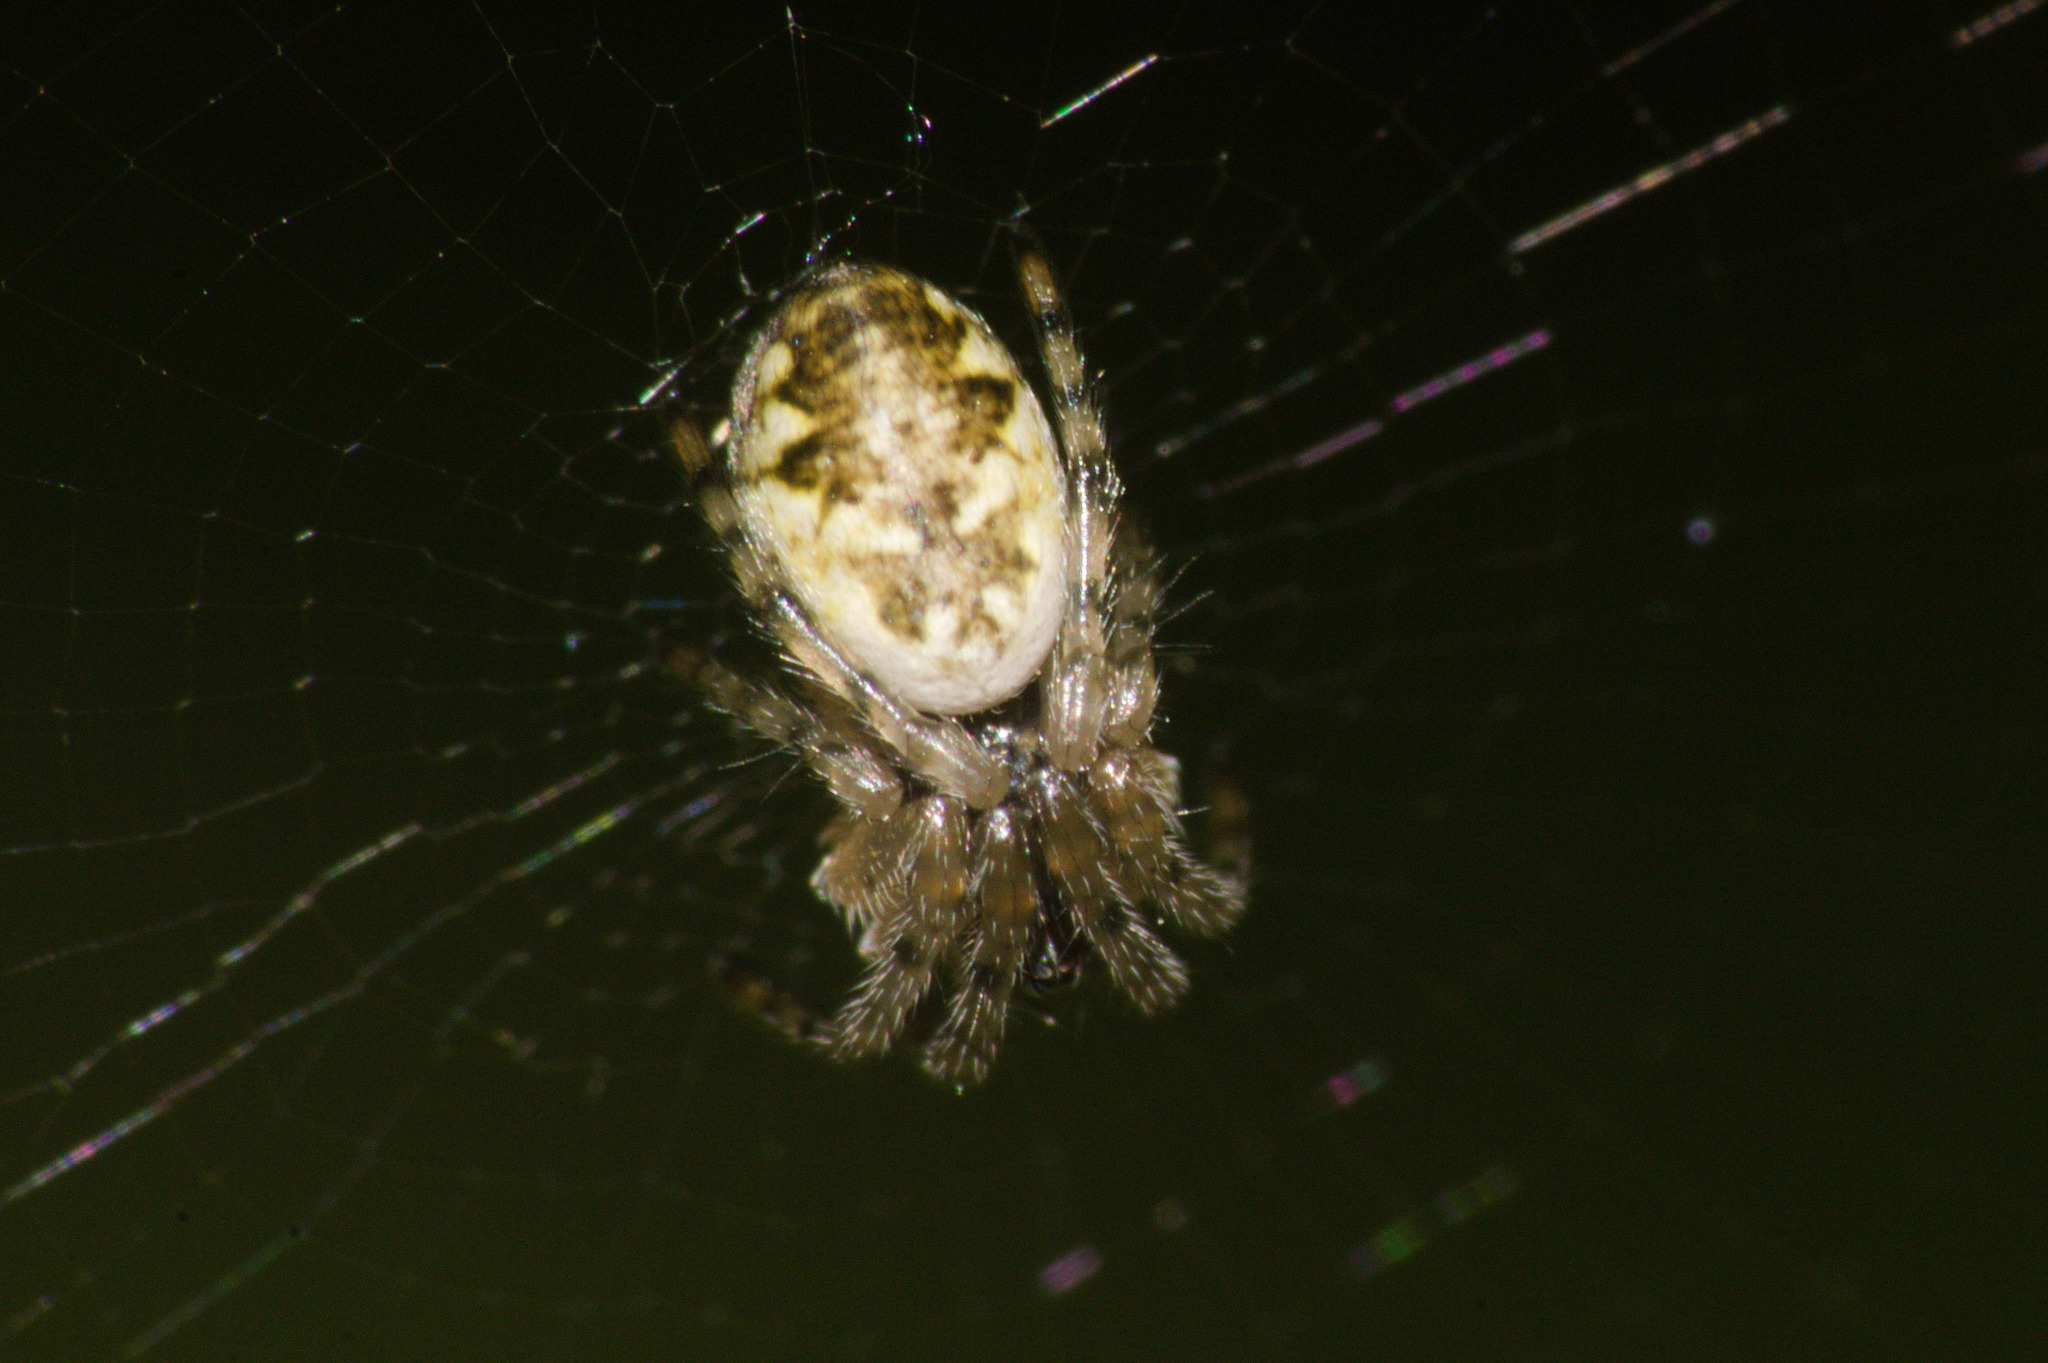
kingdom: Animalia
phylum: Arthropoda
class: Arachnida
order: Araneae
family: Araneidae
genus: Cyclosa
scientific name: Cyclosa conica
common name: Conical trashline orbweaver
